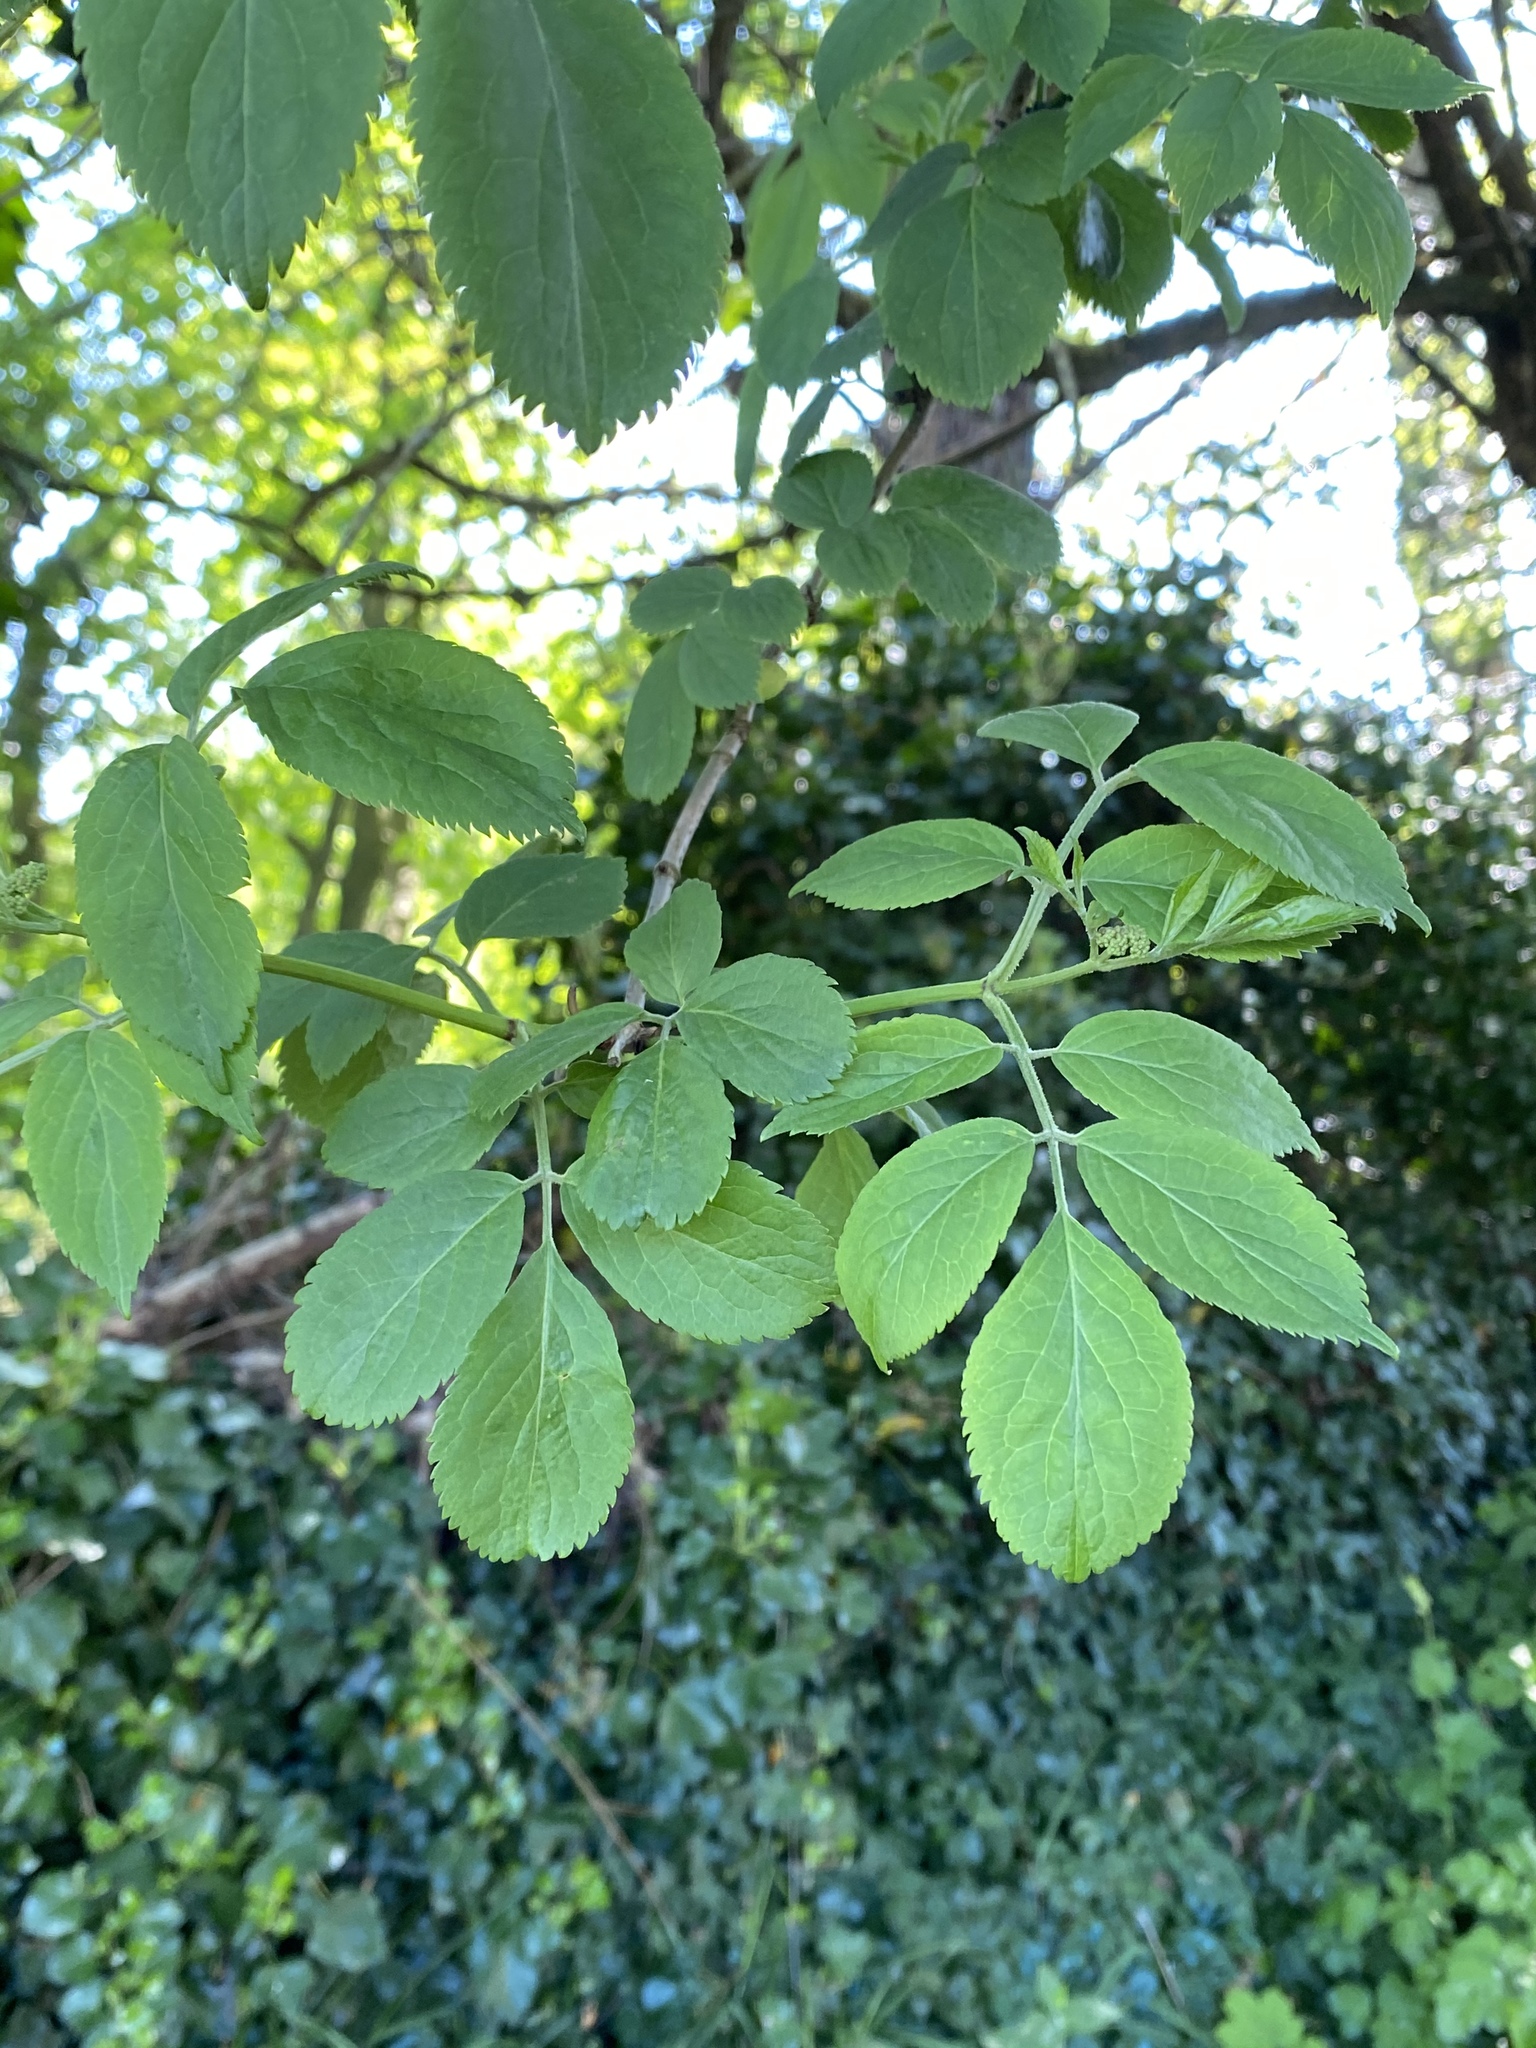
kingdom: Plantae
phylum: Tracheophyta
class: Magnoliopsida
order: Dipsacales
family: Viburnaceae
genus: Sambucus
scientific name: Sambucus nigra
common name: Elder
